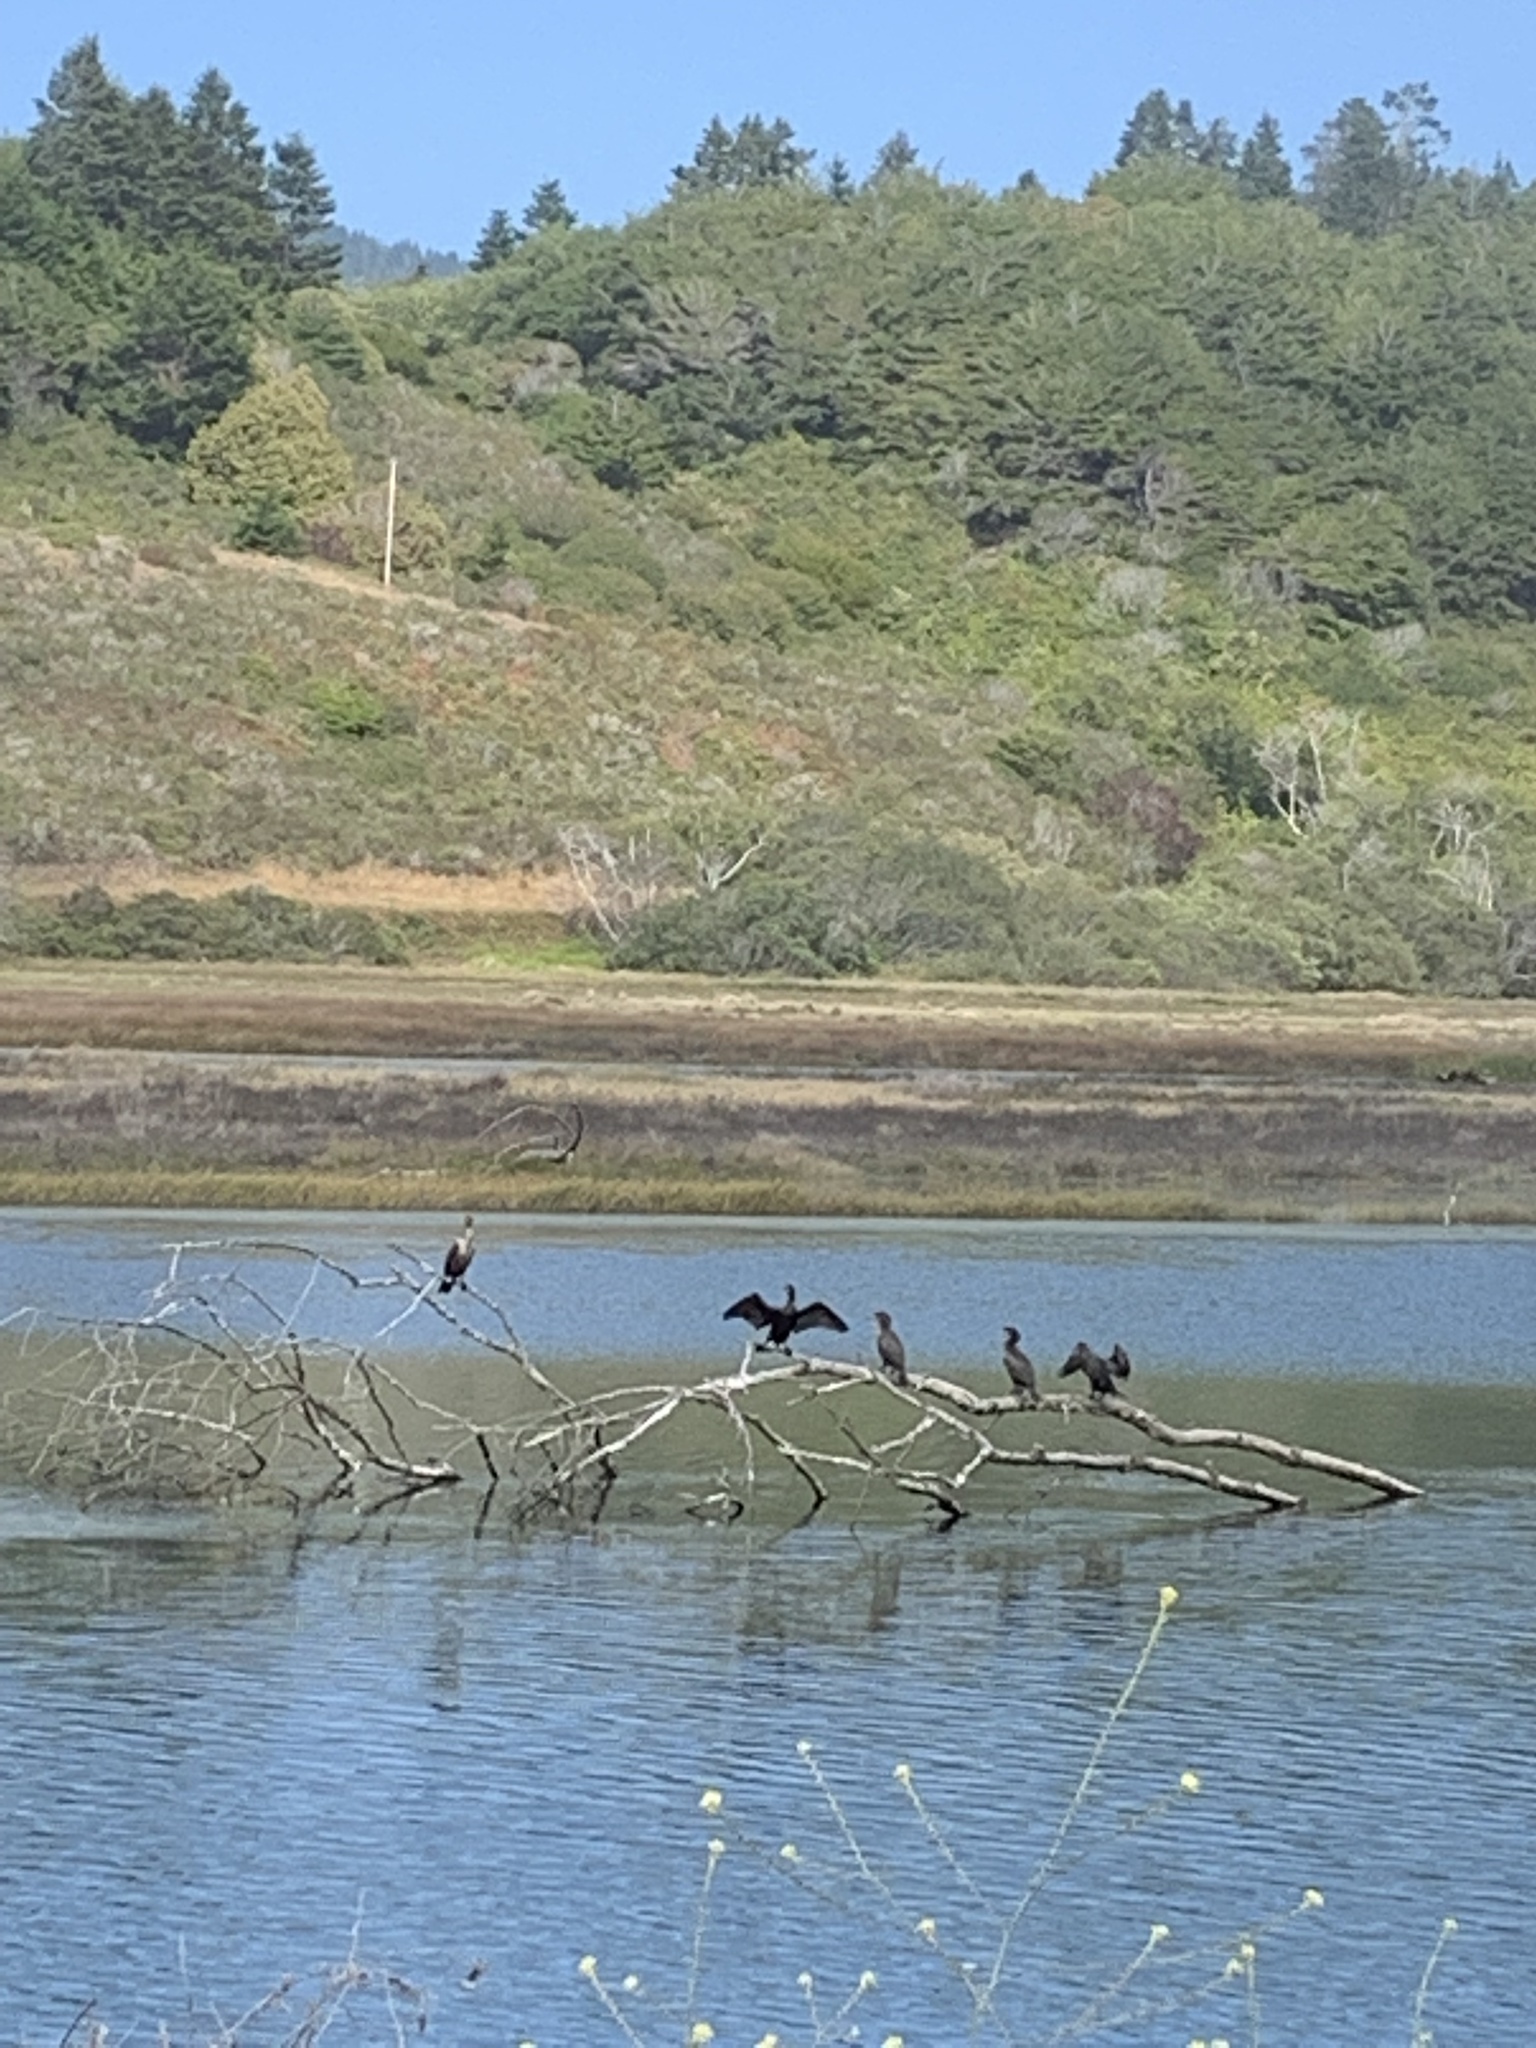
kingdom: Animalia
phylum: Chordata
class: Aves
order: Suliformes
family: Phalacrocoracidae
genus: Phalacrocorax
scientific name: Phalacrocorax auritus
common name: Double-crested cormorant
